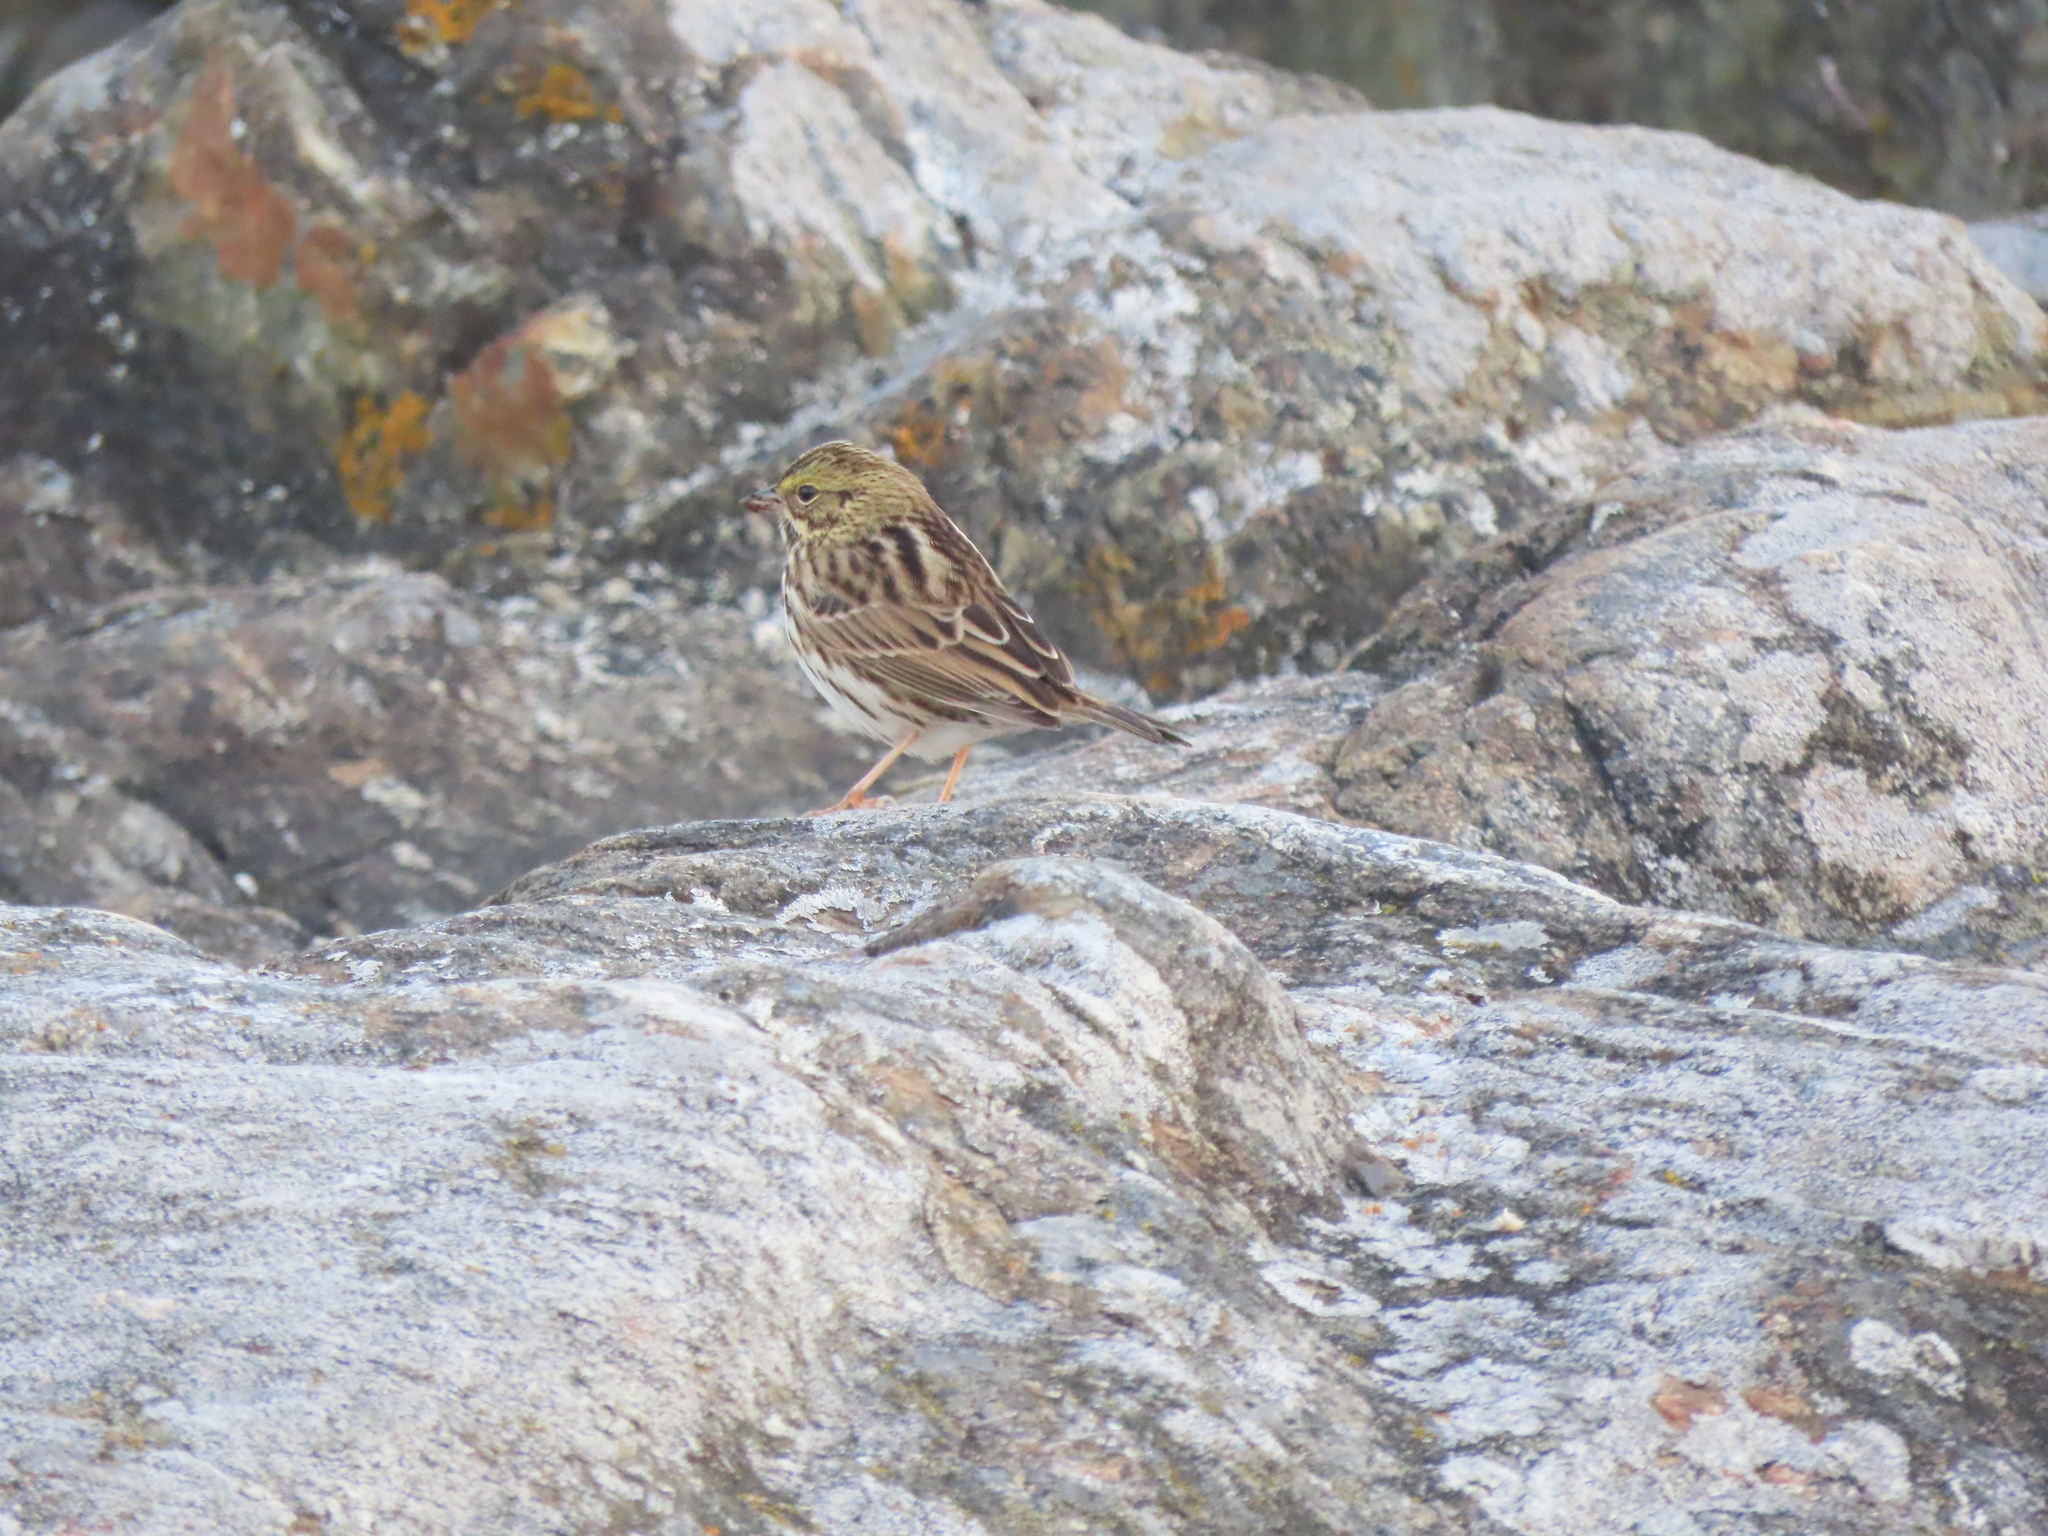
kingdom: Animalia
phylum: Chordata
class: Aves
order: Passeriformes
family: Passerellidae
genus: Passerculus
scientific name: Passerculus sandwichensis
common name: Savannah sparrow
